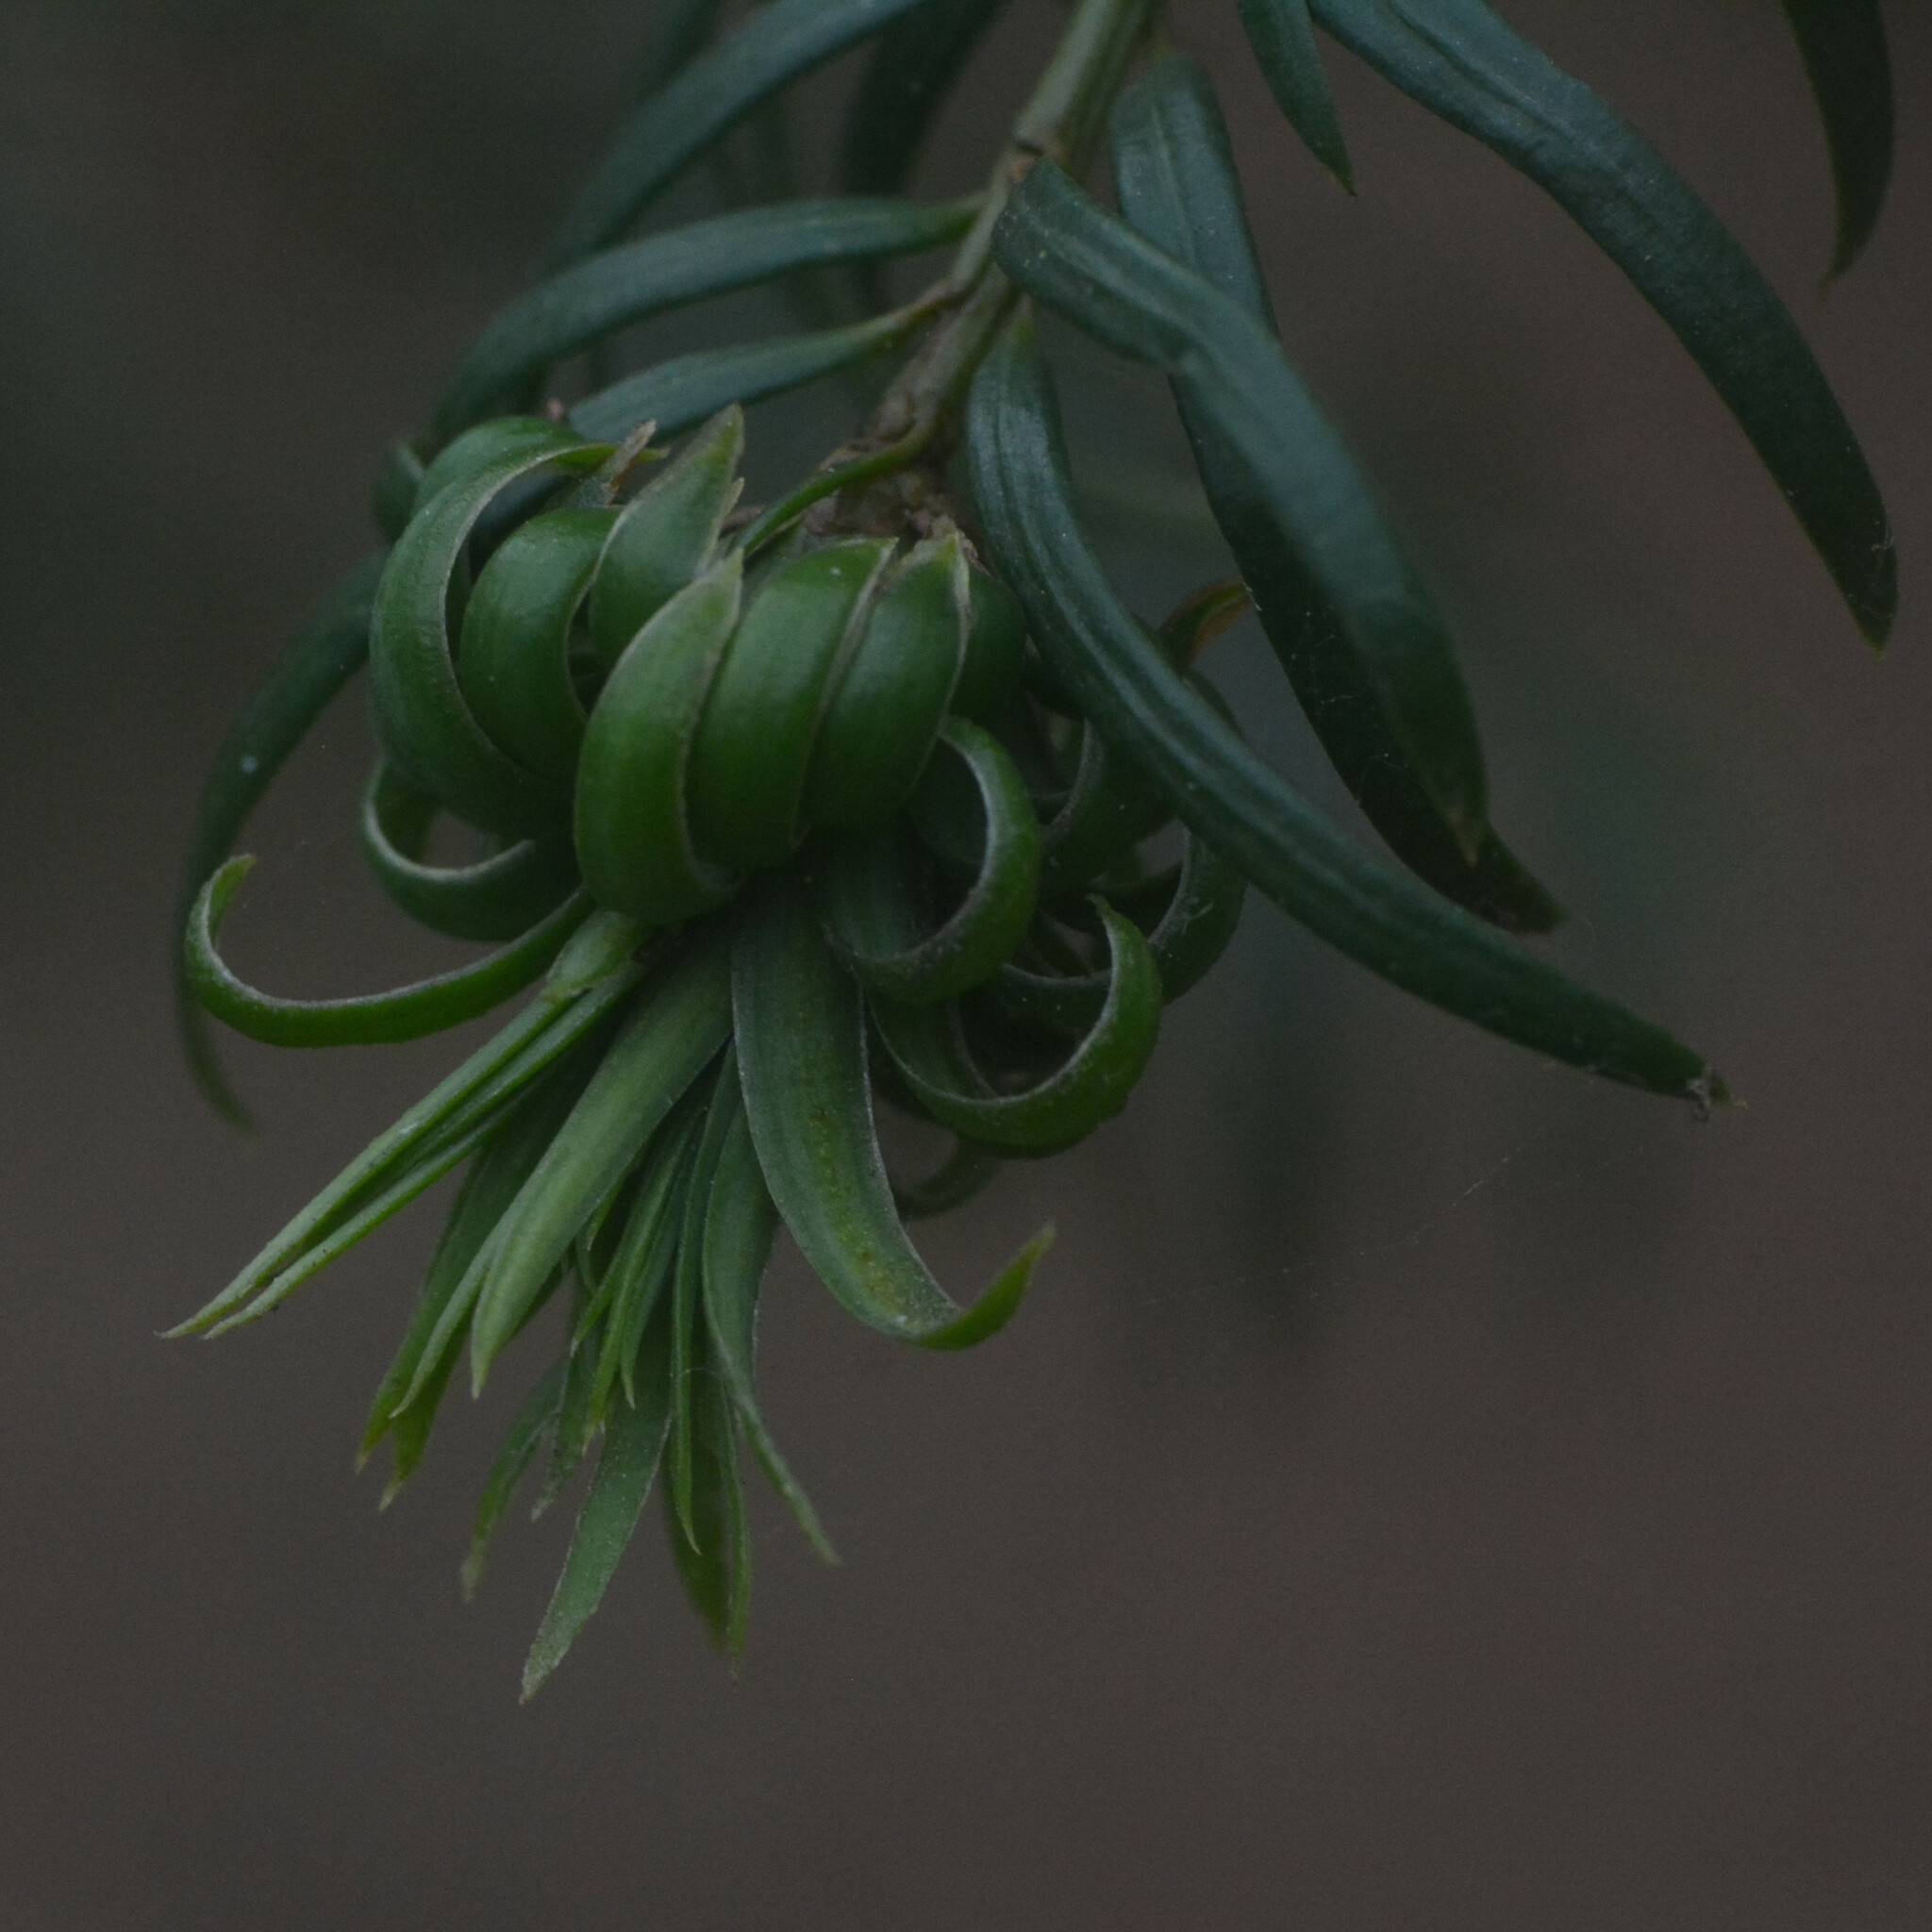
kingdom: Animalia
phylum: Arthropoda
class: Insecta
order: Diptera
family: Cecidomyiidae
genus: Taxomyia
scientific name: Taxomyia taxi
